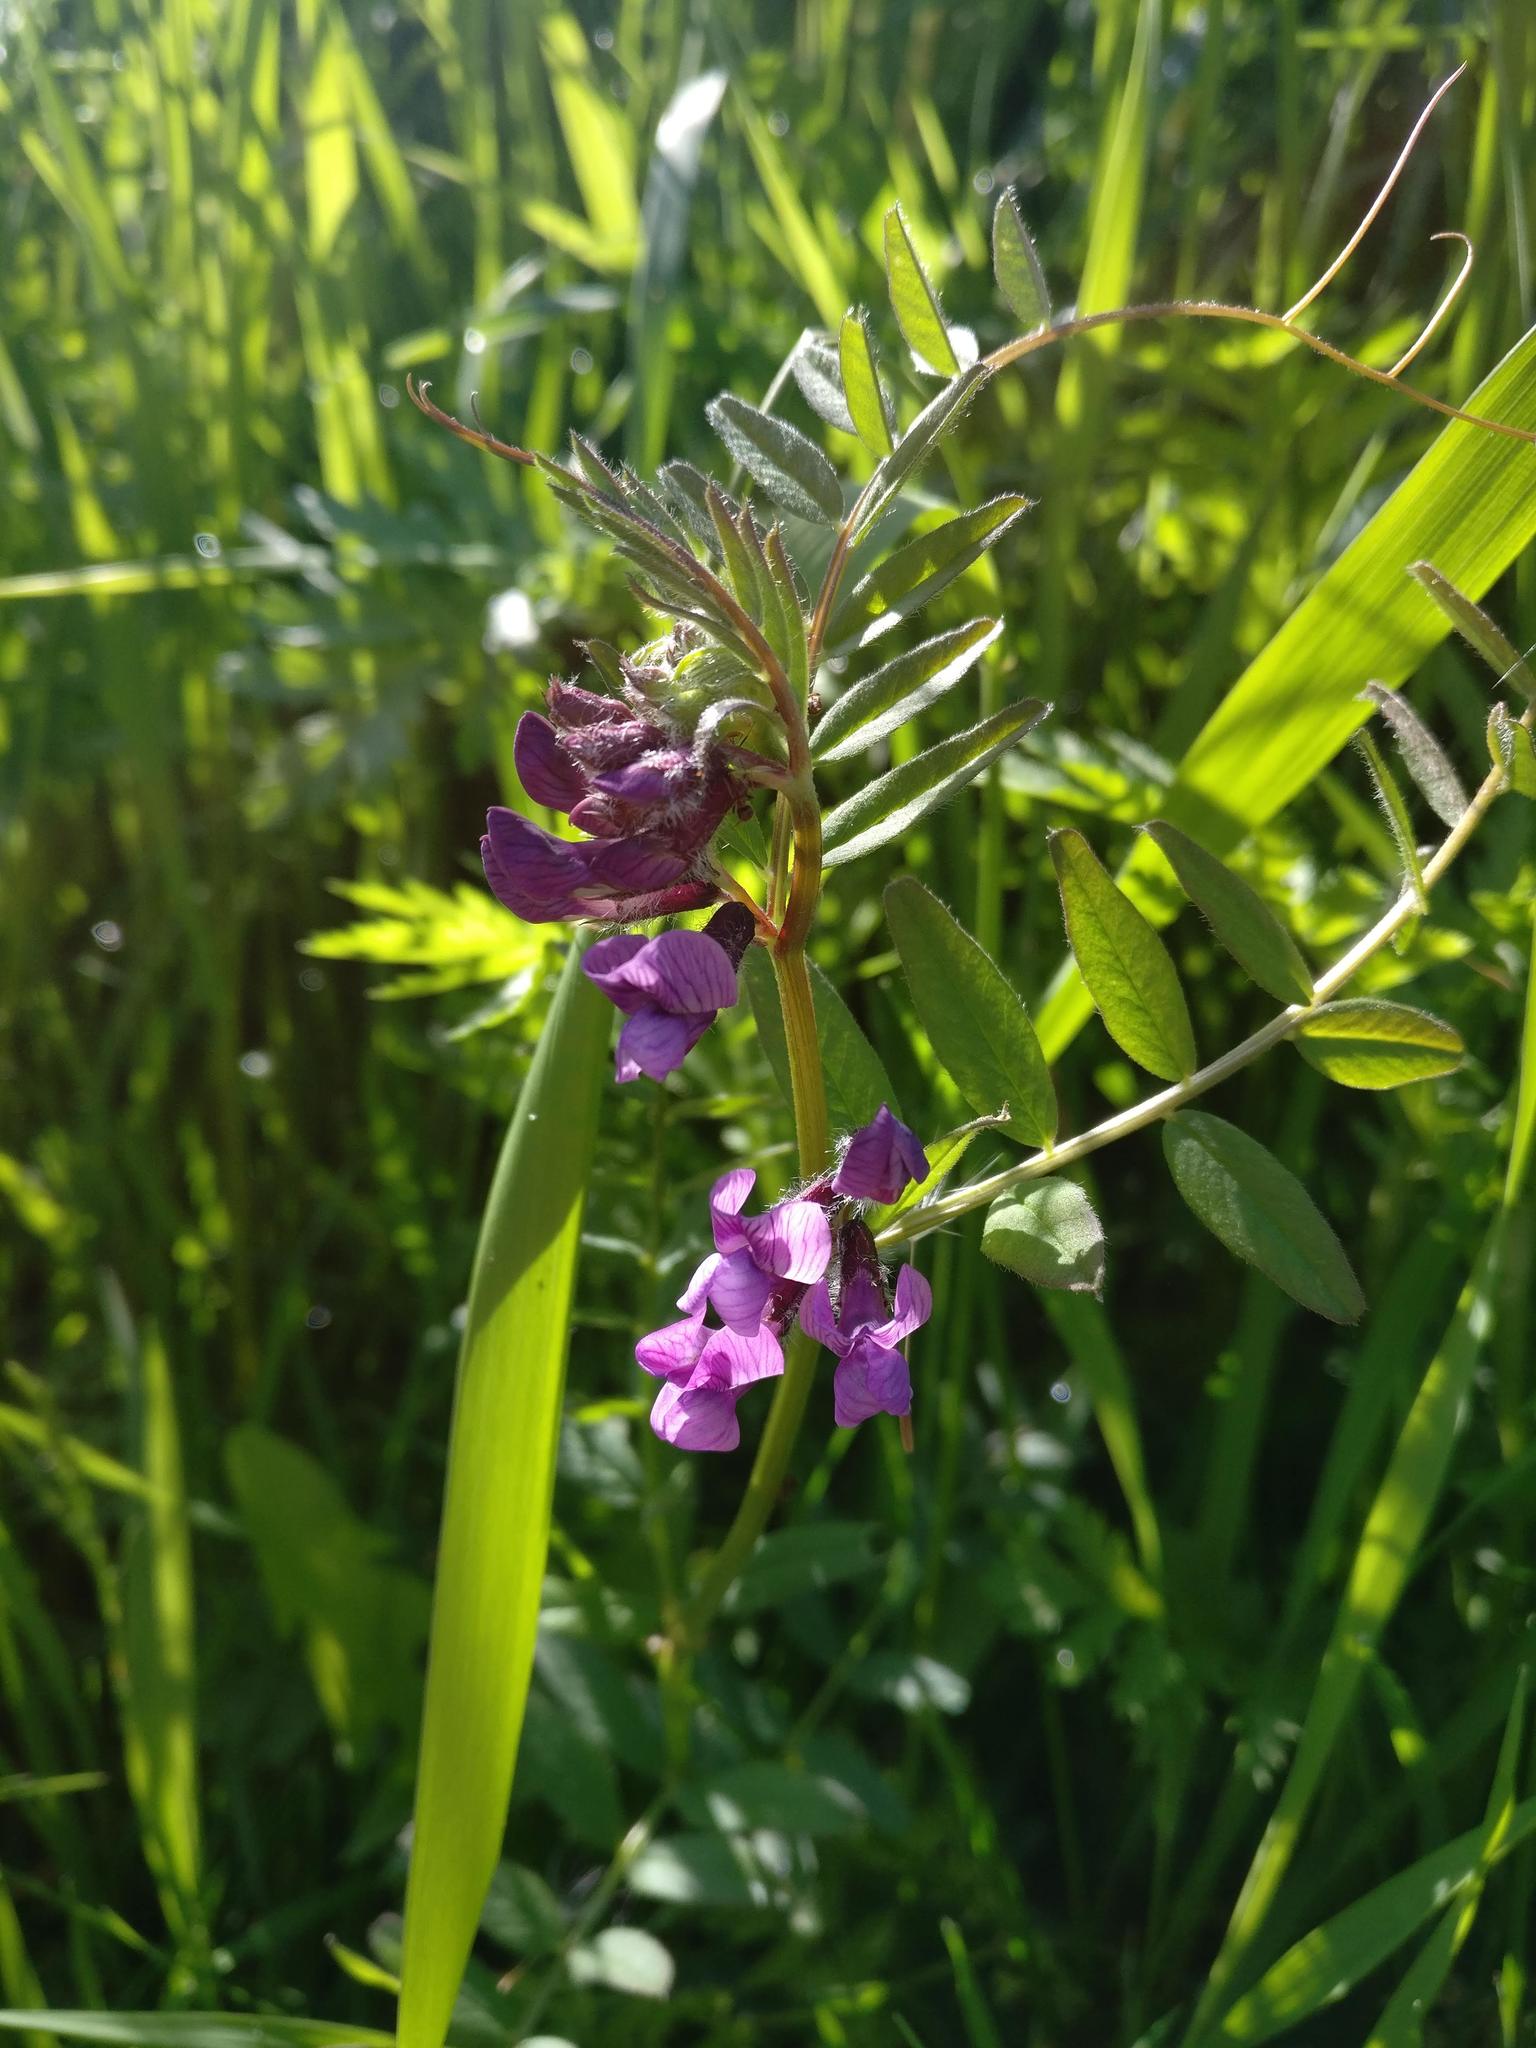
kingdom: Plantae
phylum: Tracheophyta
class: Magnoliopsida
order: Fabales
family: Fabaceae
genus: Vicia
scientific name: Vicia sepium
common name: Bush vetch
